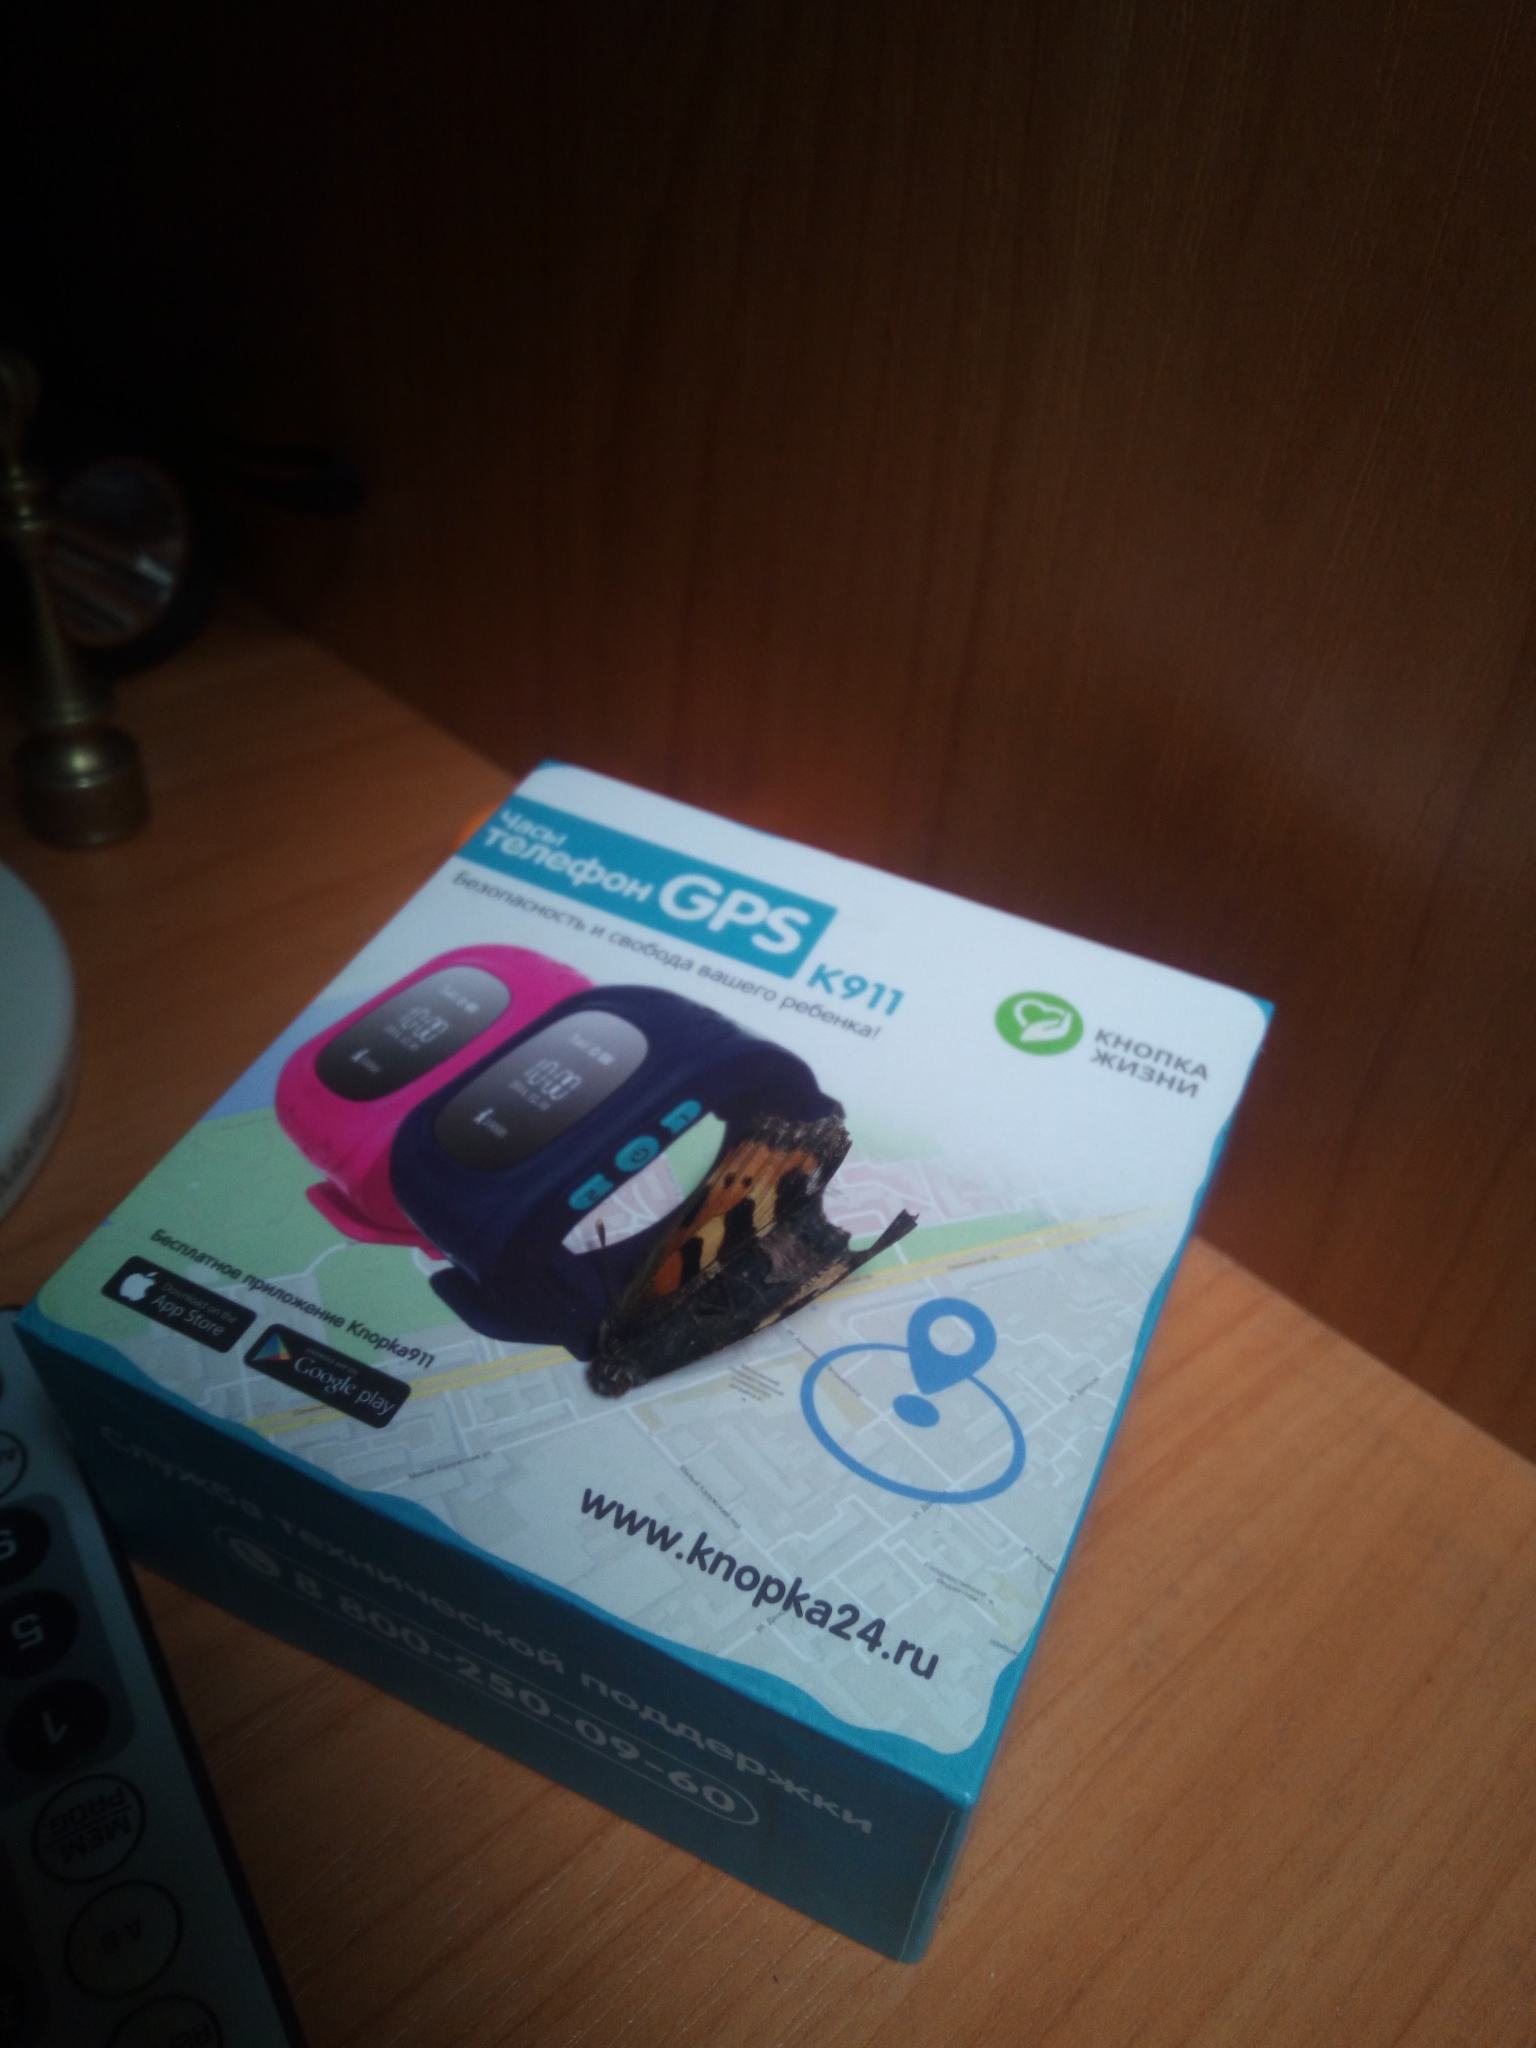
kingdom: Animalia
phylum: Arthropoda
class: Insecta
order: Lepidoptera
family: Nymphalidae
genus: Aglais
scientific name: Aglais urticae
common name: Small tortoiseshell
